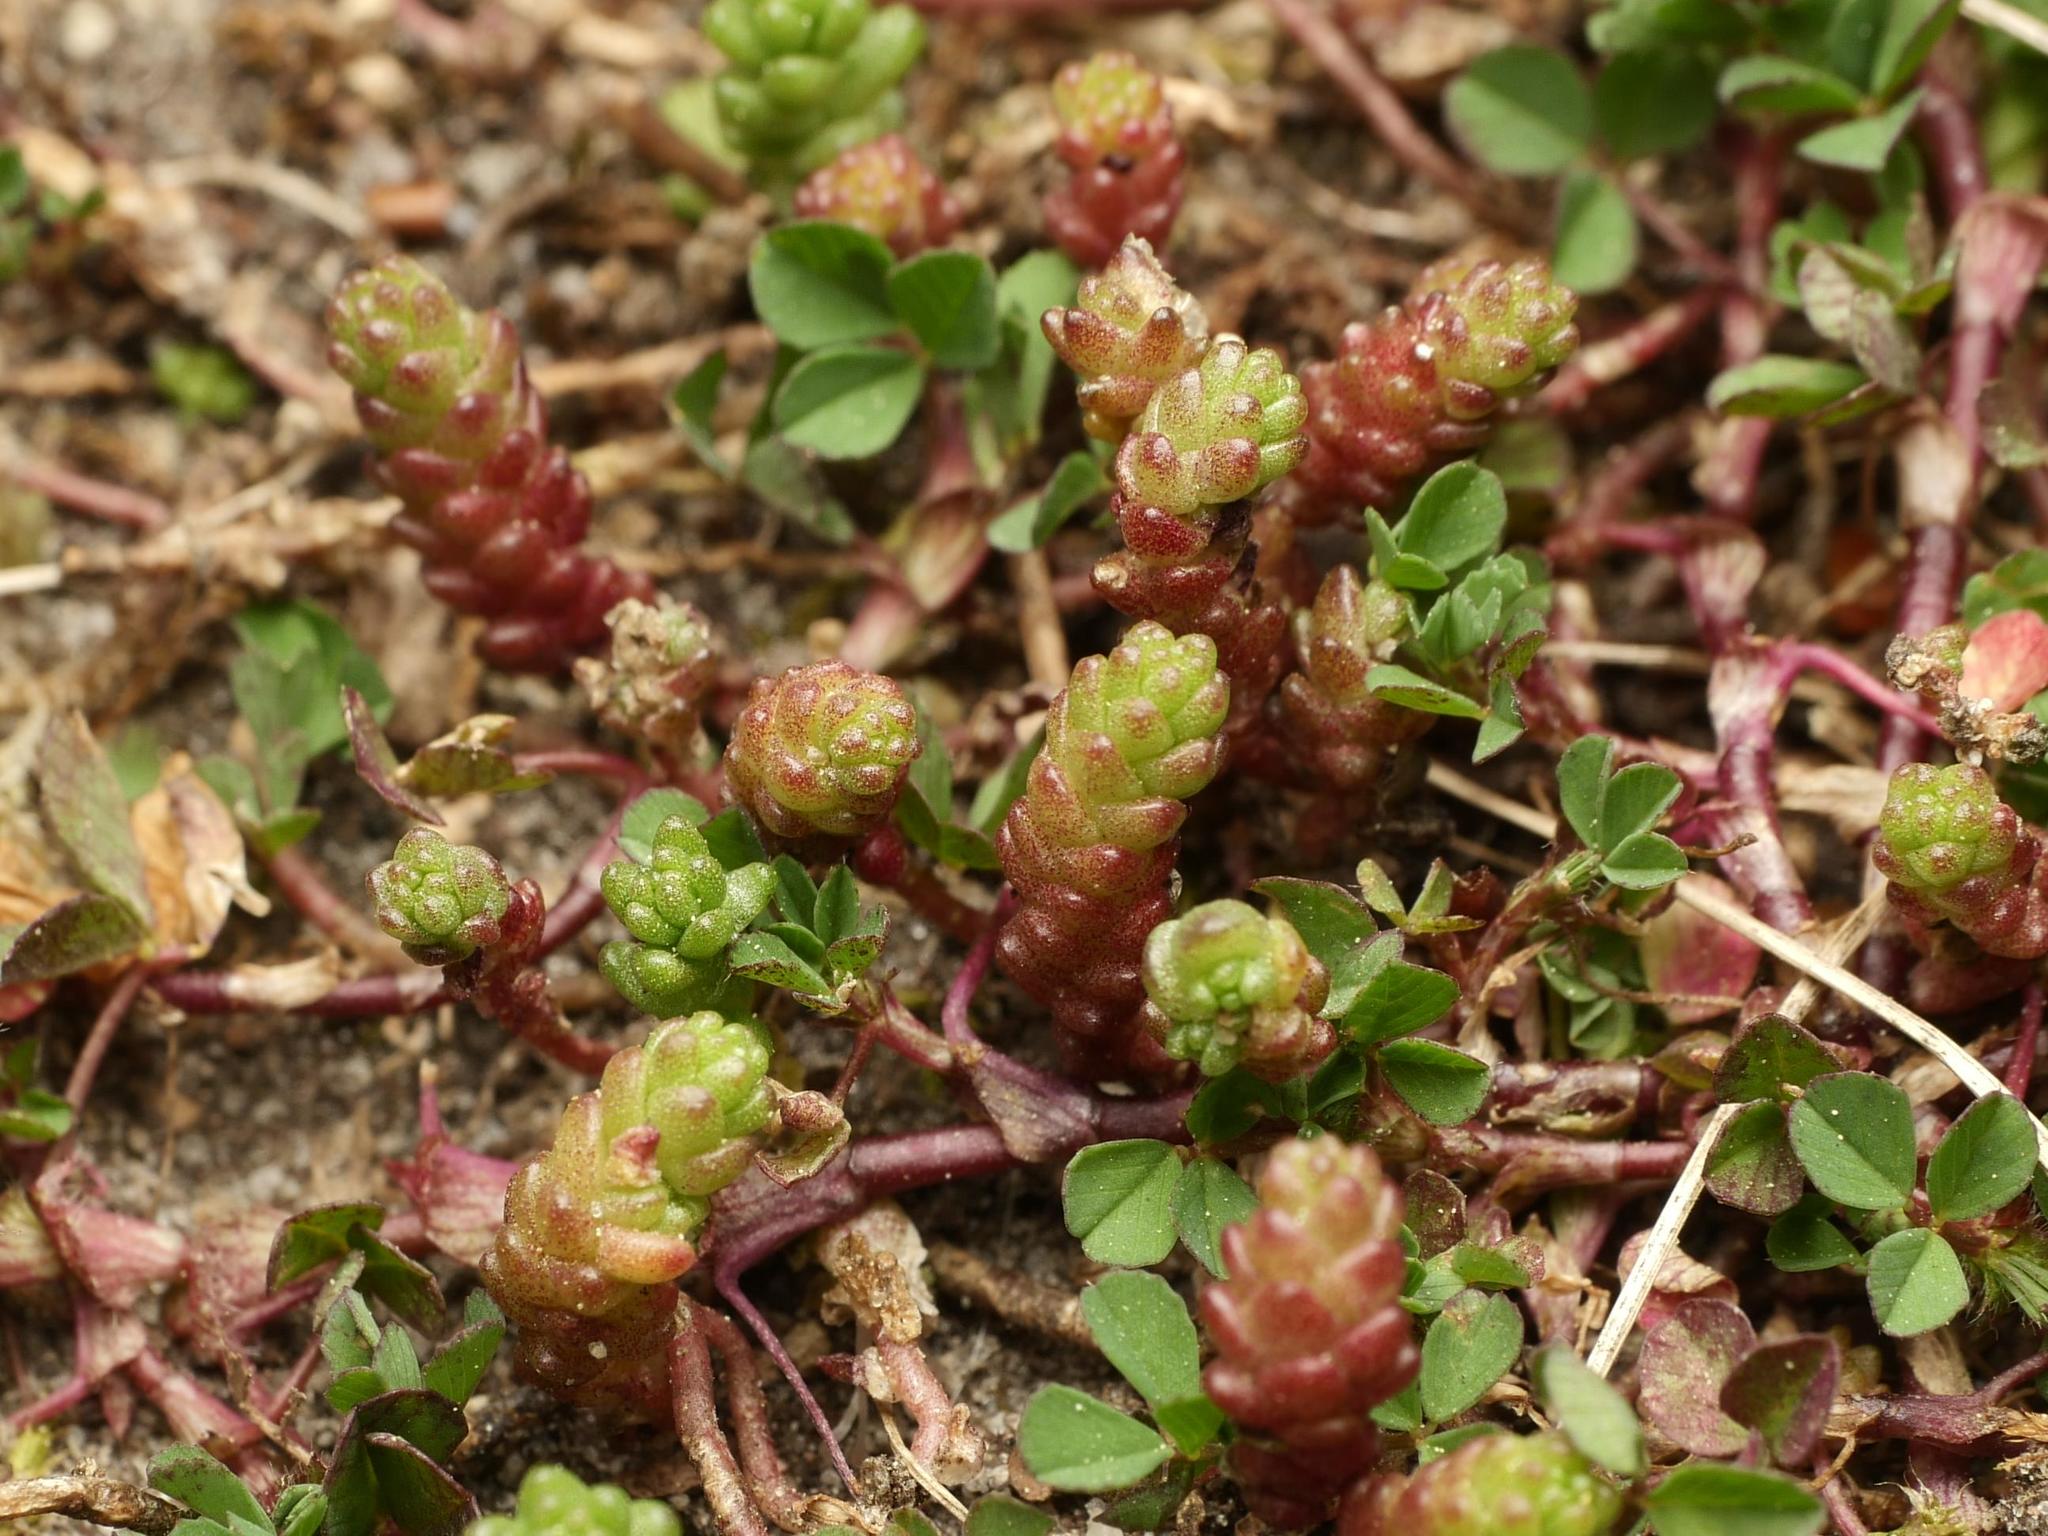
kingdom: Plantae
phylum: Tracheophyta
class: Magnoliopsida
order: Saxifragales
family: Crassulaceae
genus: Sedum
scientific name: Sedum acre
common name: Biting stonecrop
